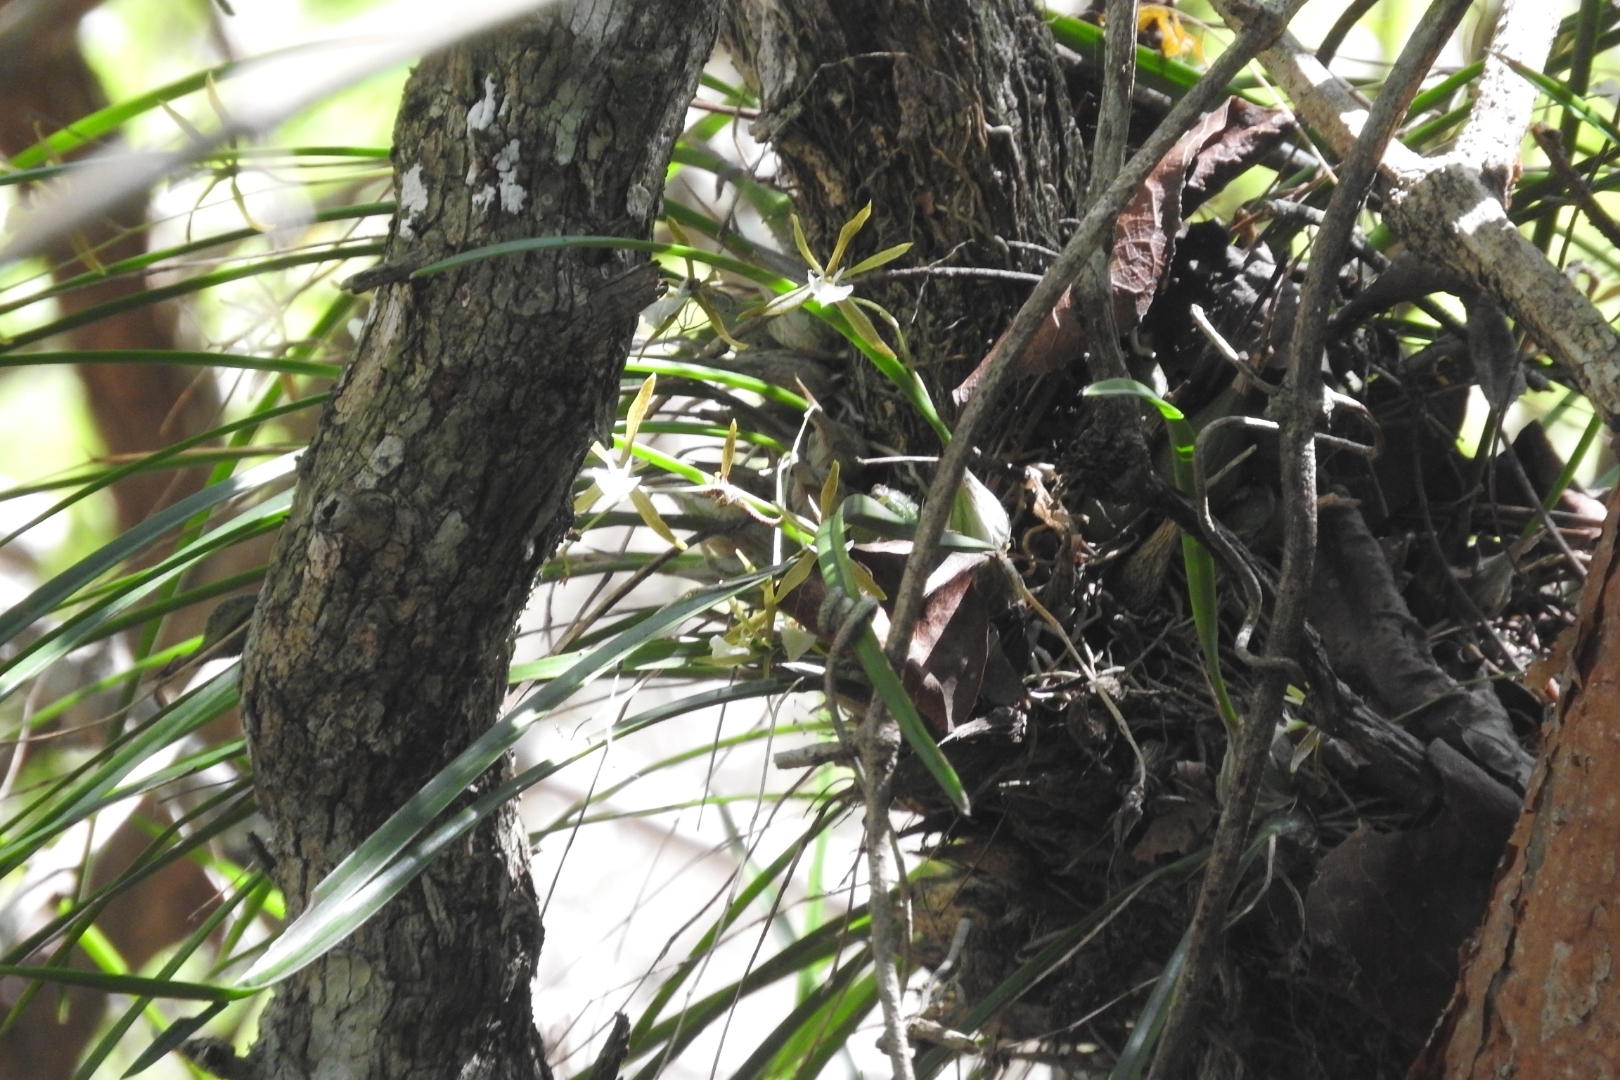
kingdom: Plantae
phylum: Tracheophyta
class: Liliopsida
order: Asparagales
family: Orchidaceae
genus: Encyclia
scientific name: Encyclia nematocaulon
